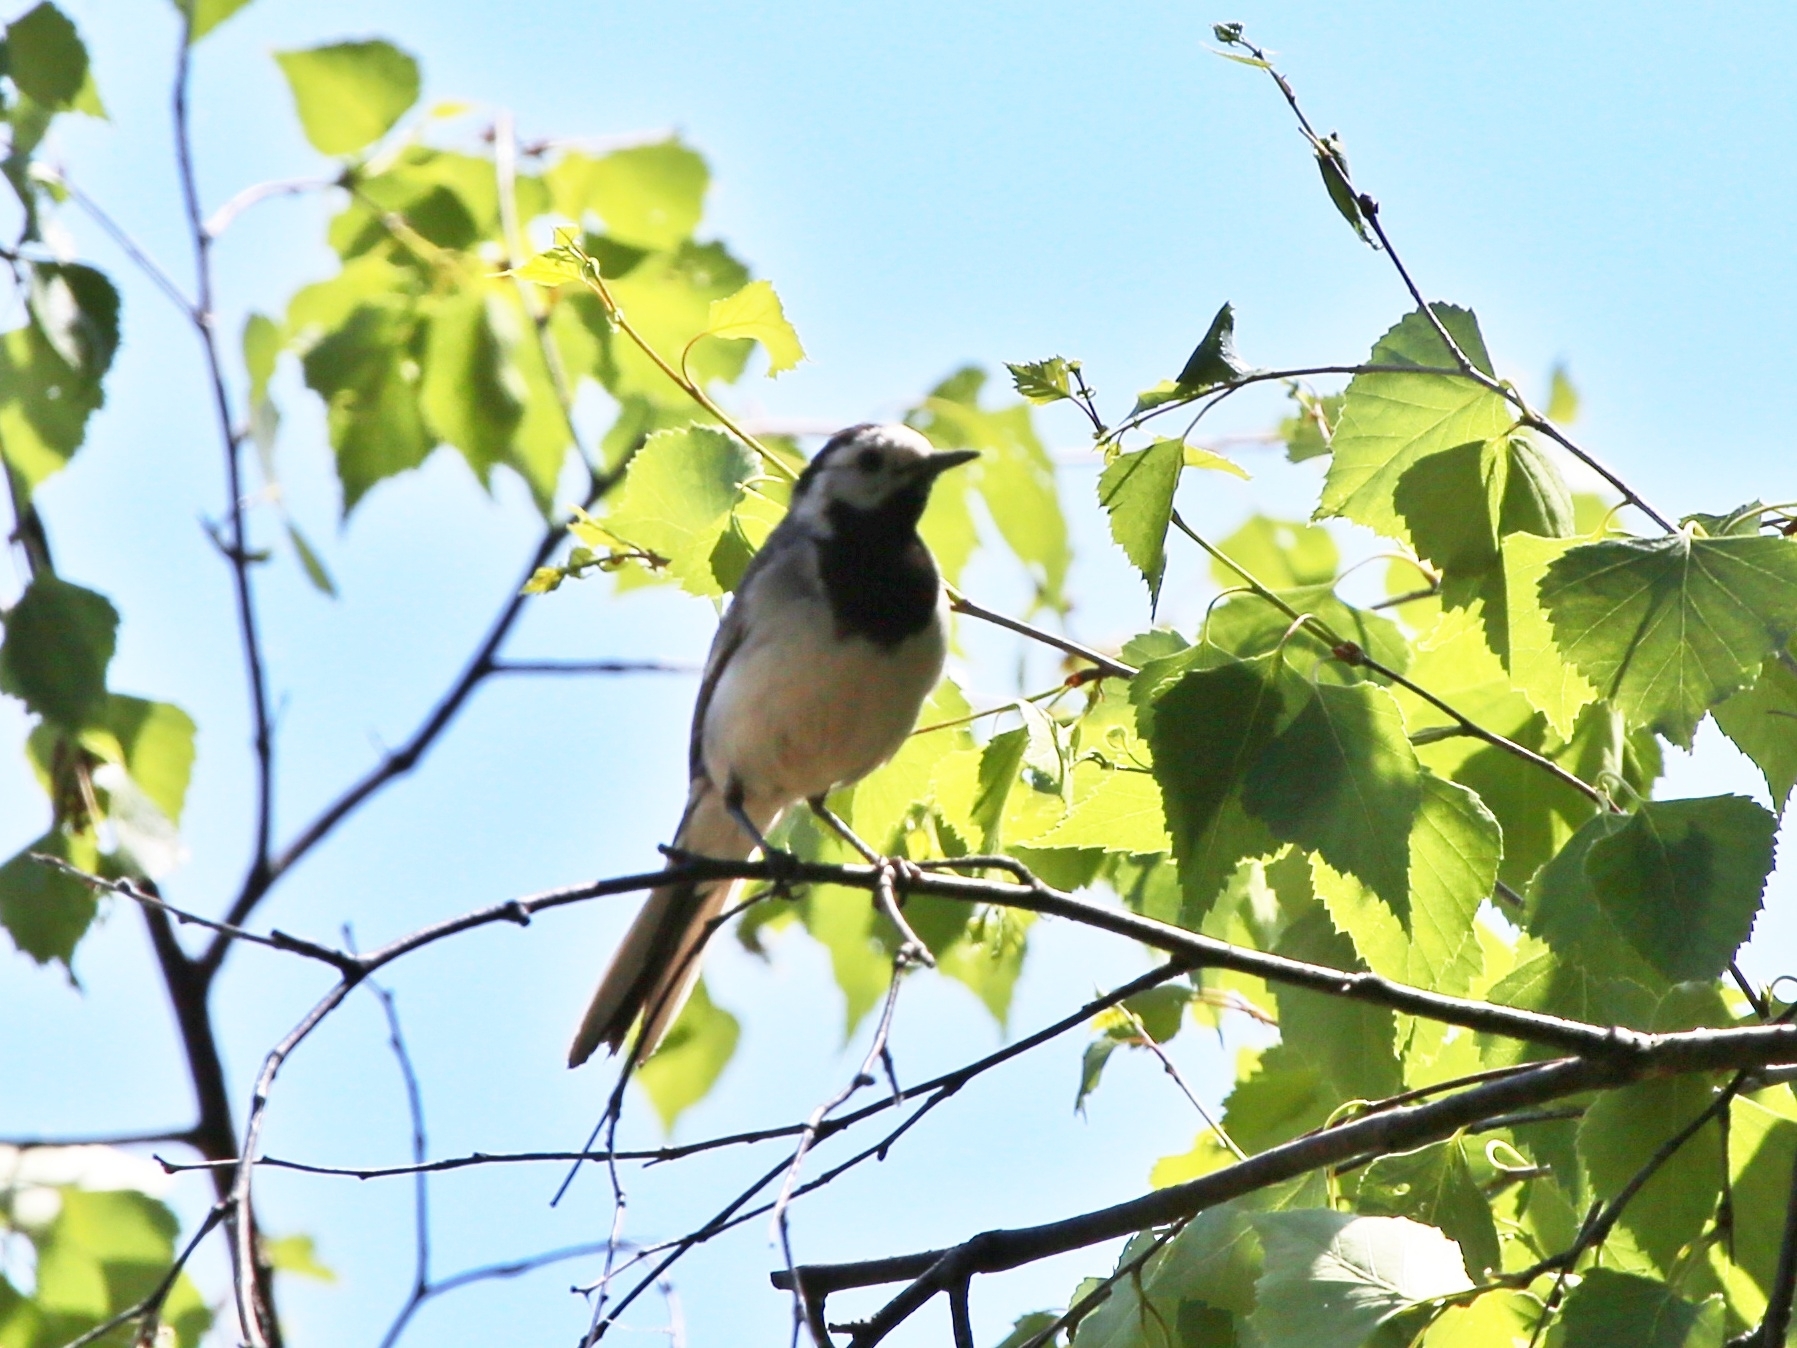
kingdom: Animalia
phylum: Chordata
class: Aves
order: Passeriformes
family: Motacillidae
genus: Motacilla
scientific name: Motacilla alba
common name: White wagtail
